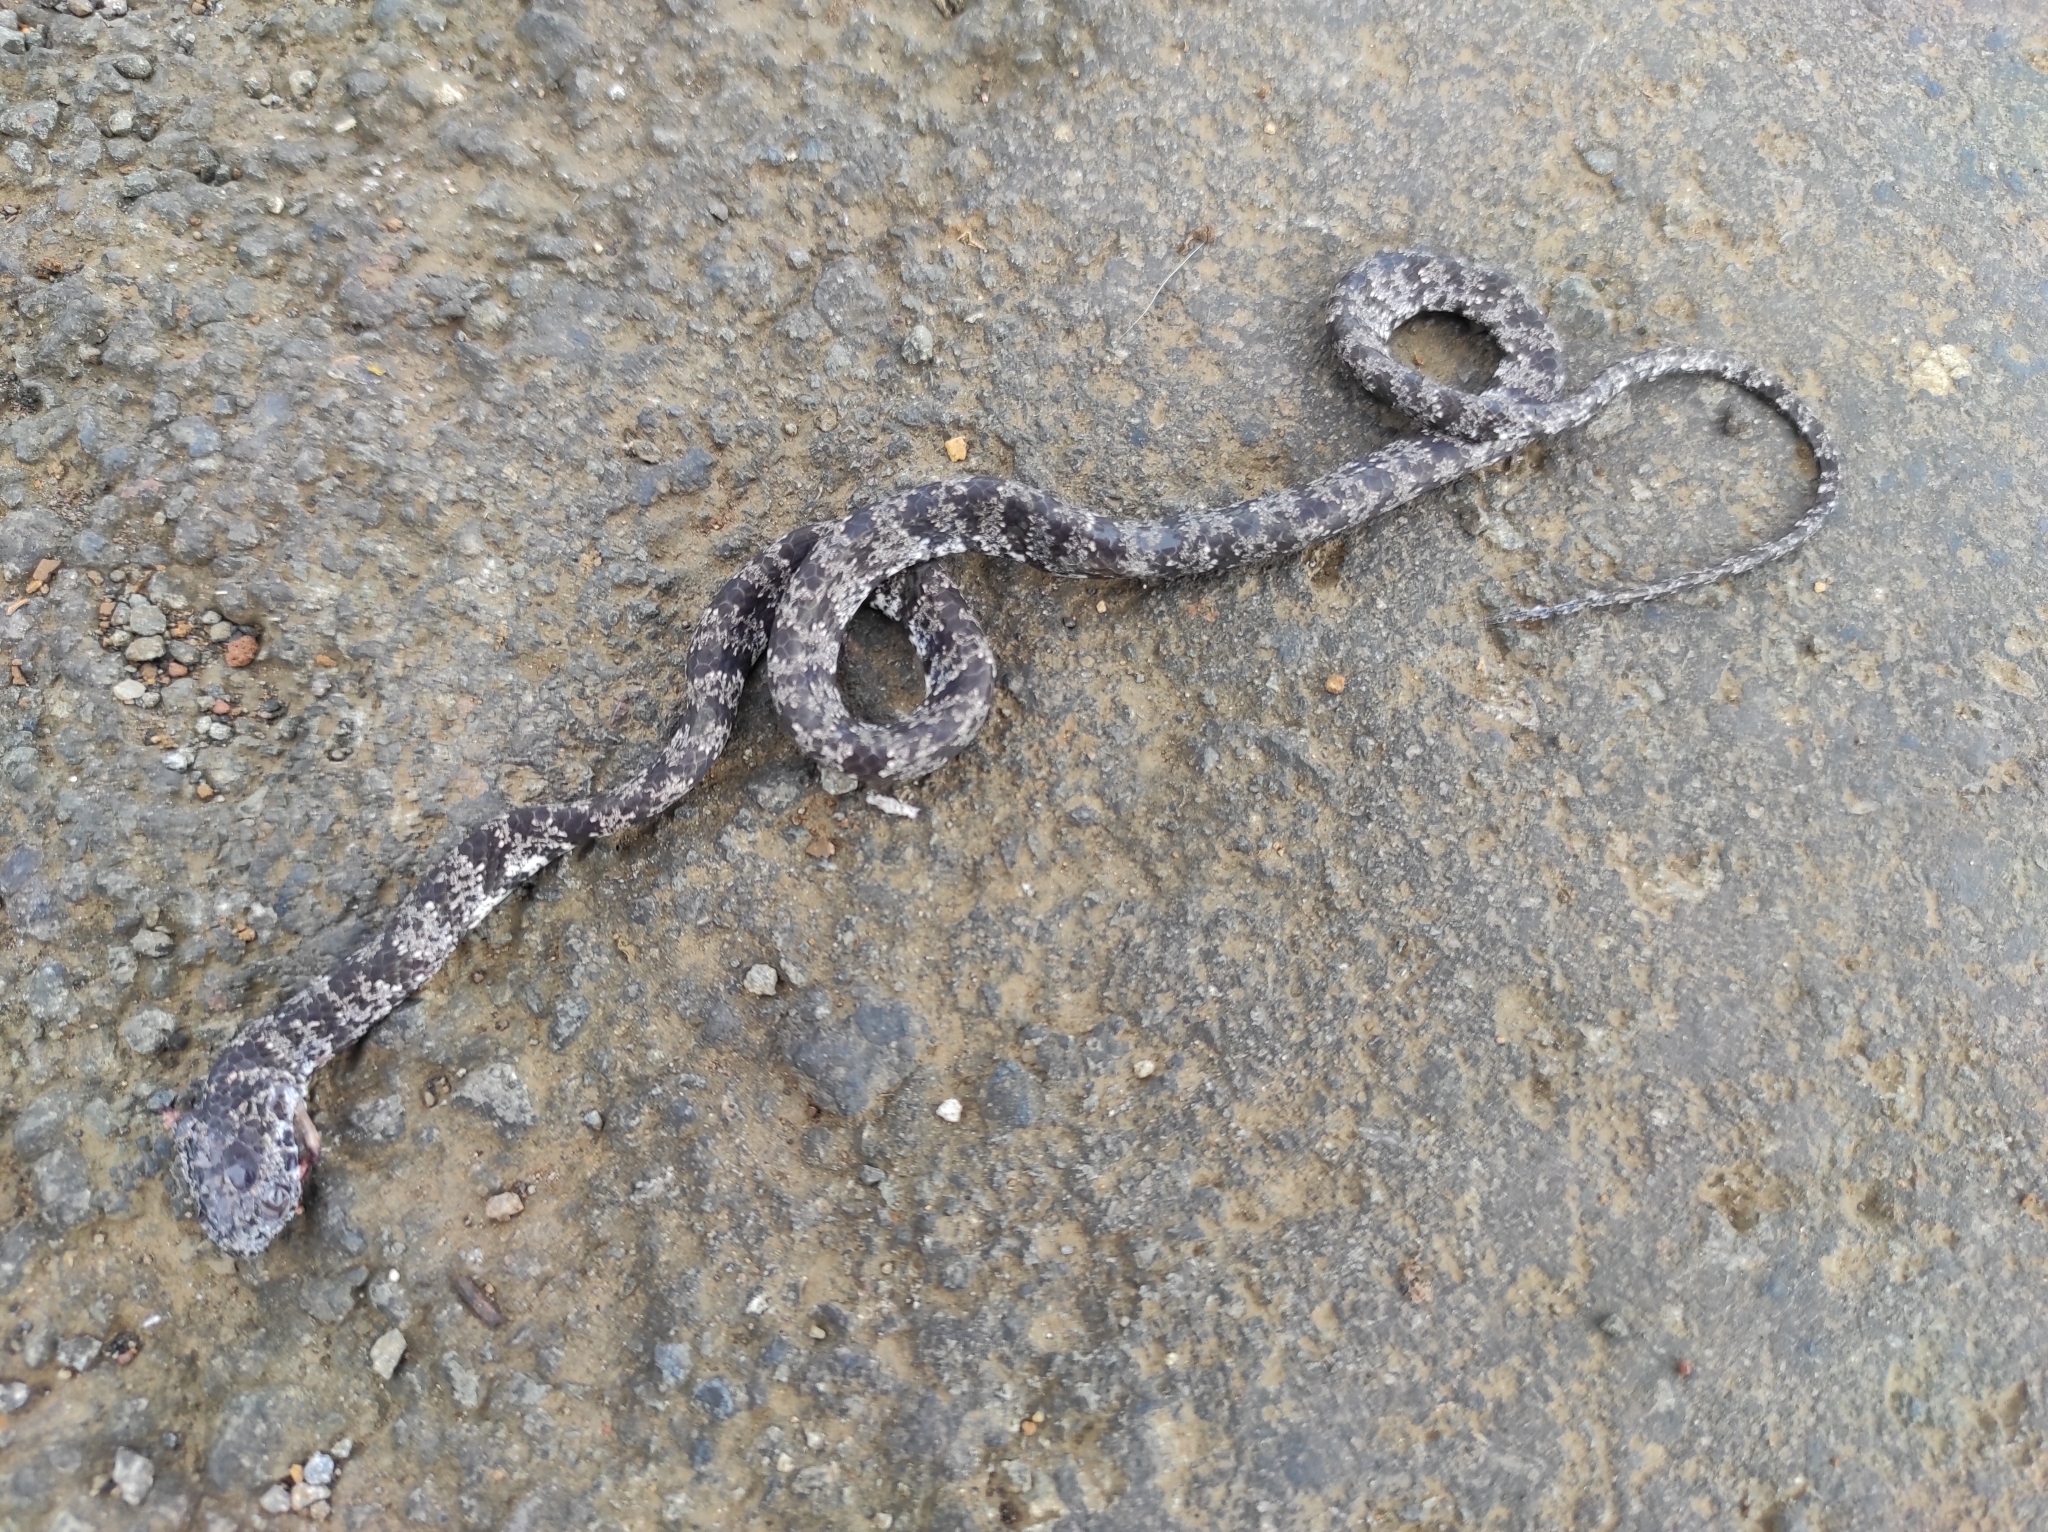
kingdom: Animalia
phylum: Chordata
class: Squamata
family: Colubridae
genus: Sibon
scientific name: Sibon nebulatus
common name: Cloudy snail-eating snake
